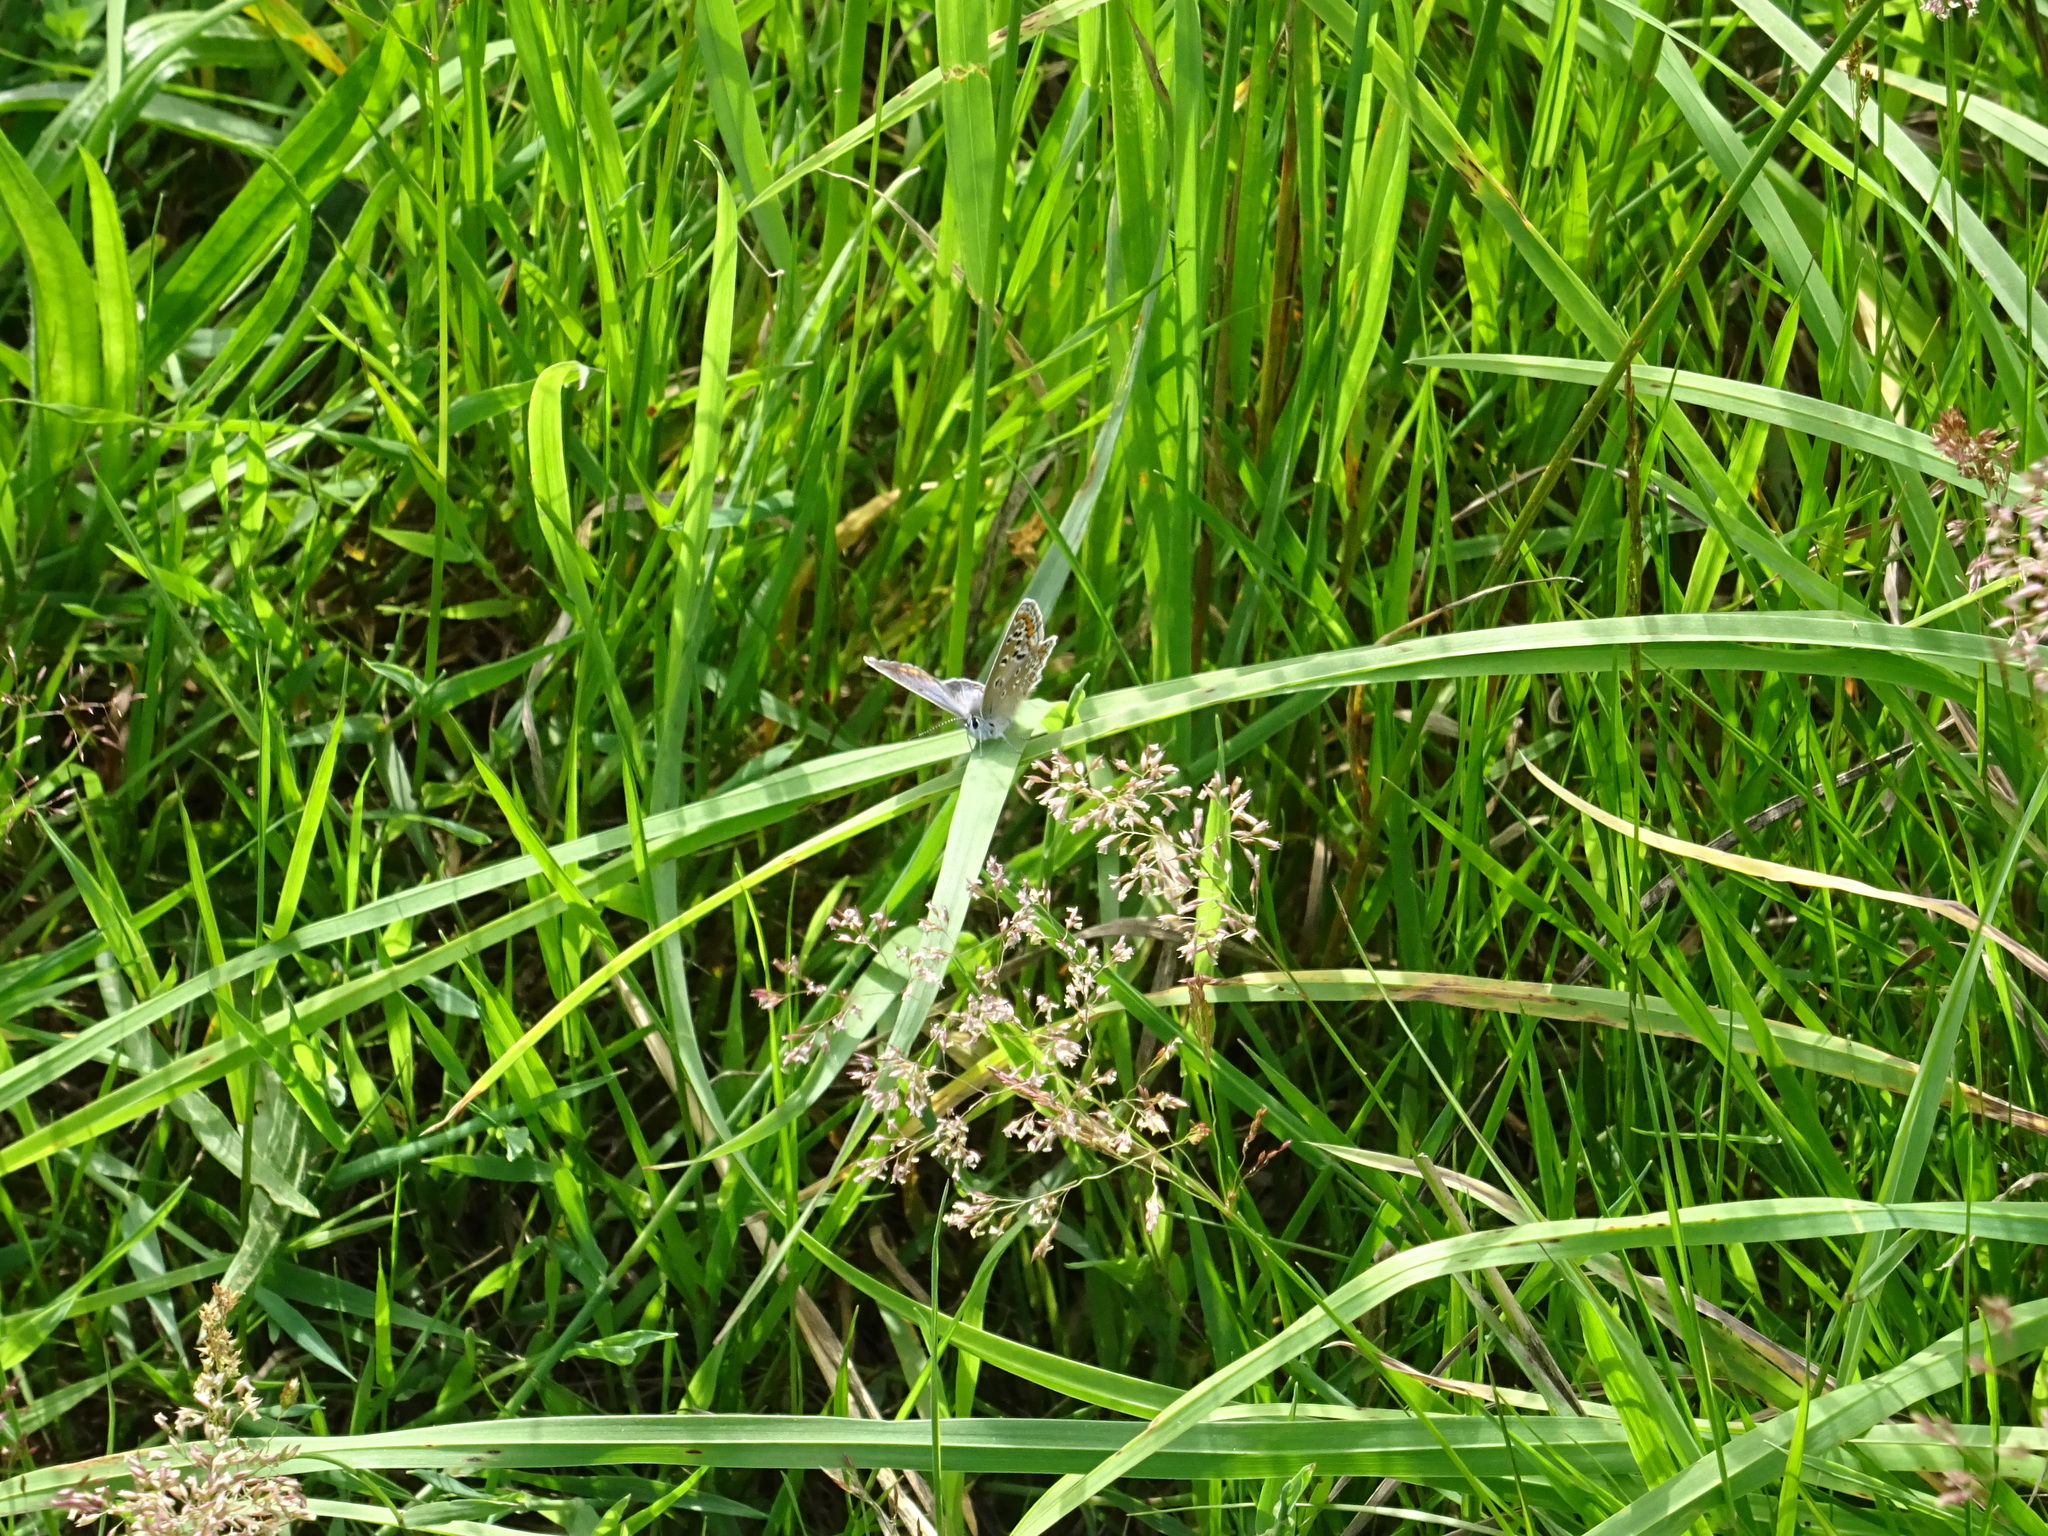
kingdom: Animalia
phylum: Arthropoda
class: Insecta
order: Lepidoptera
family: Lycaenidae
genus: Polyommatus
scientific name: Polyommatus icarus
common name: Common blue
